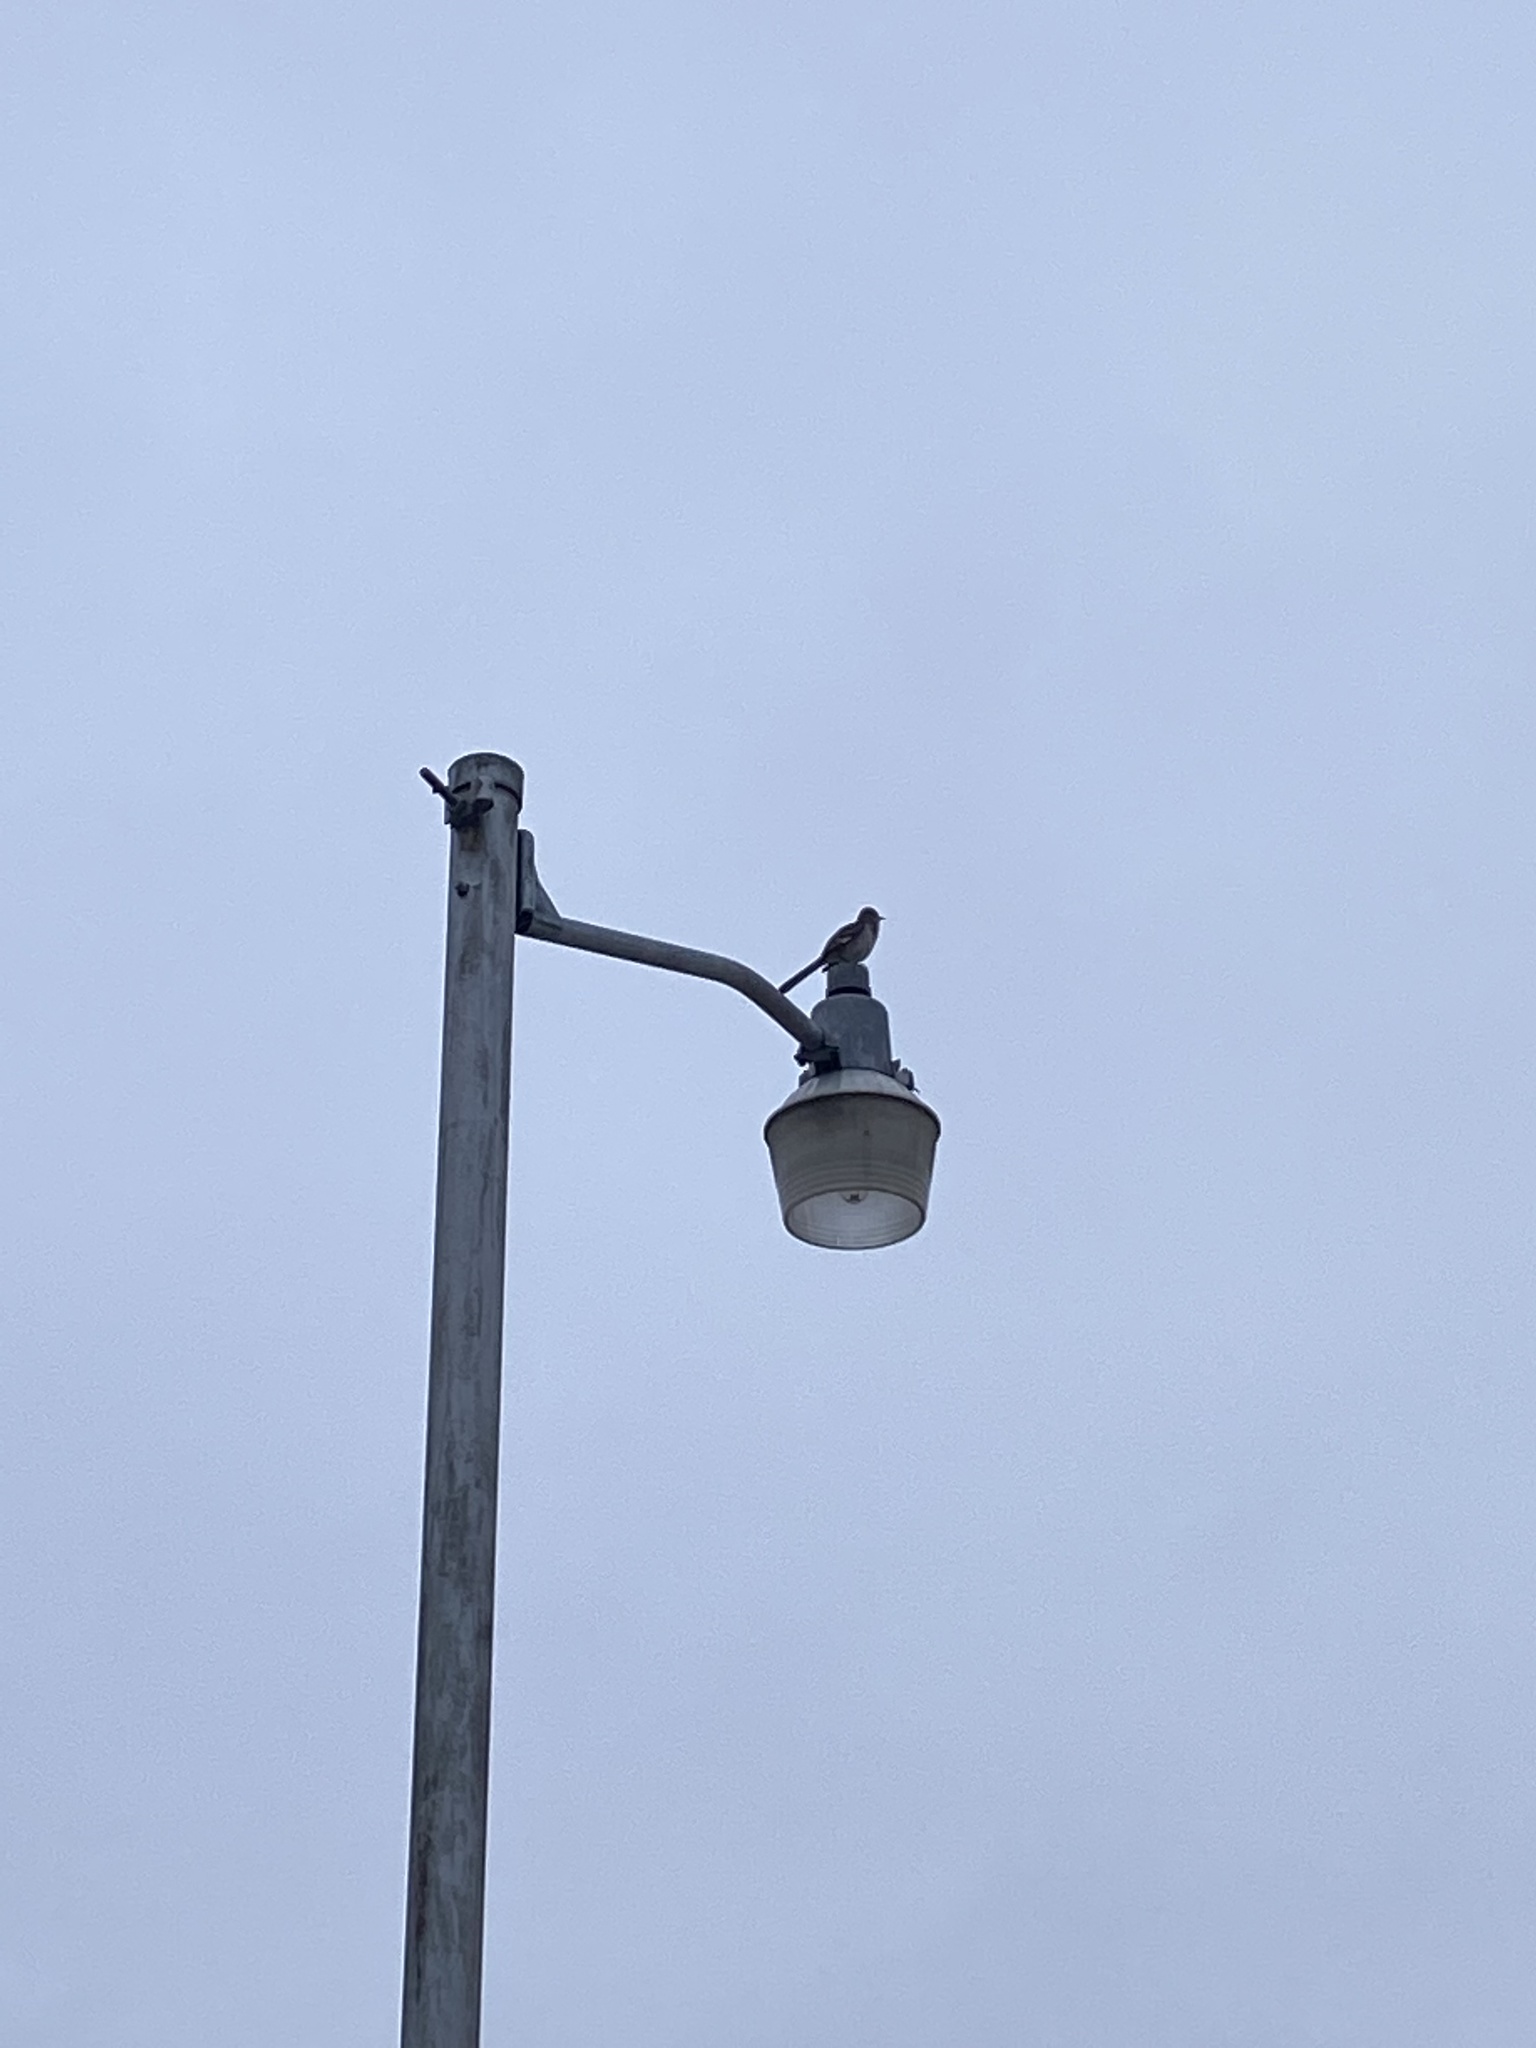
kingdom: Animalia
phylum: Chordata
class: Aves
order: Passeriformes
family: Mimidae
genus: Mimus
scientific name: Mimus polyglottos
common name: Northern mockingbird
